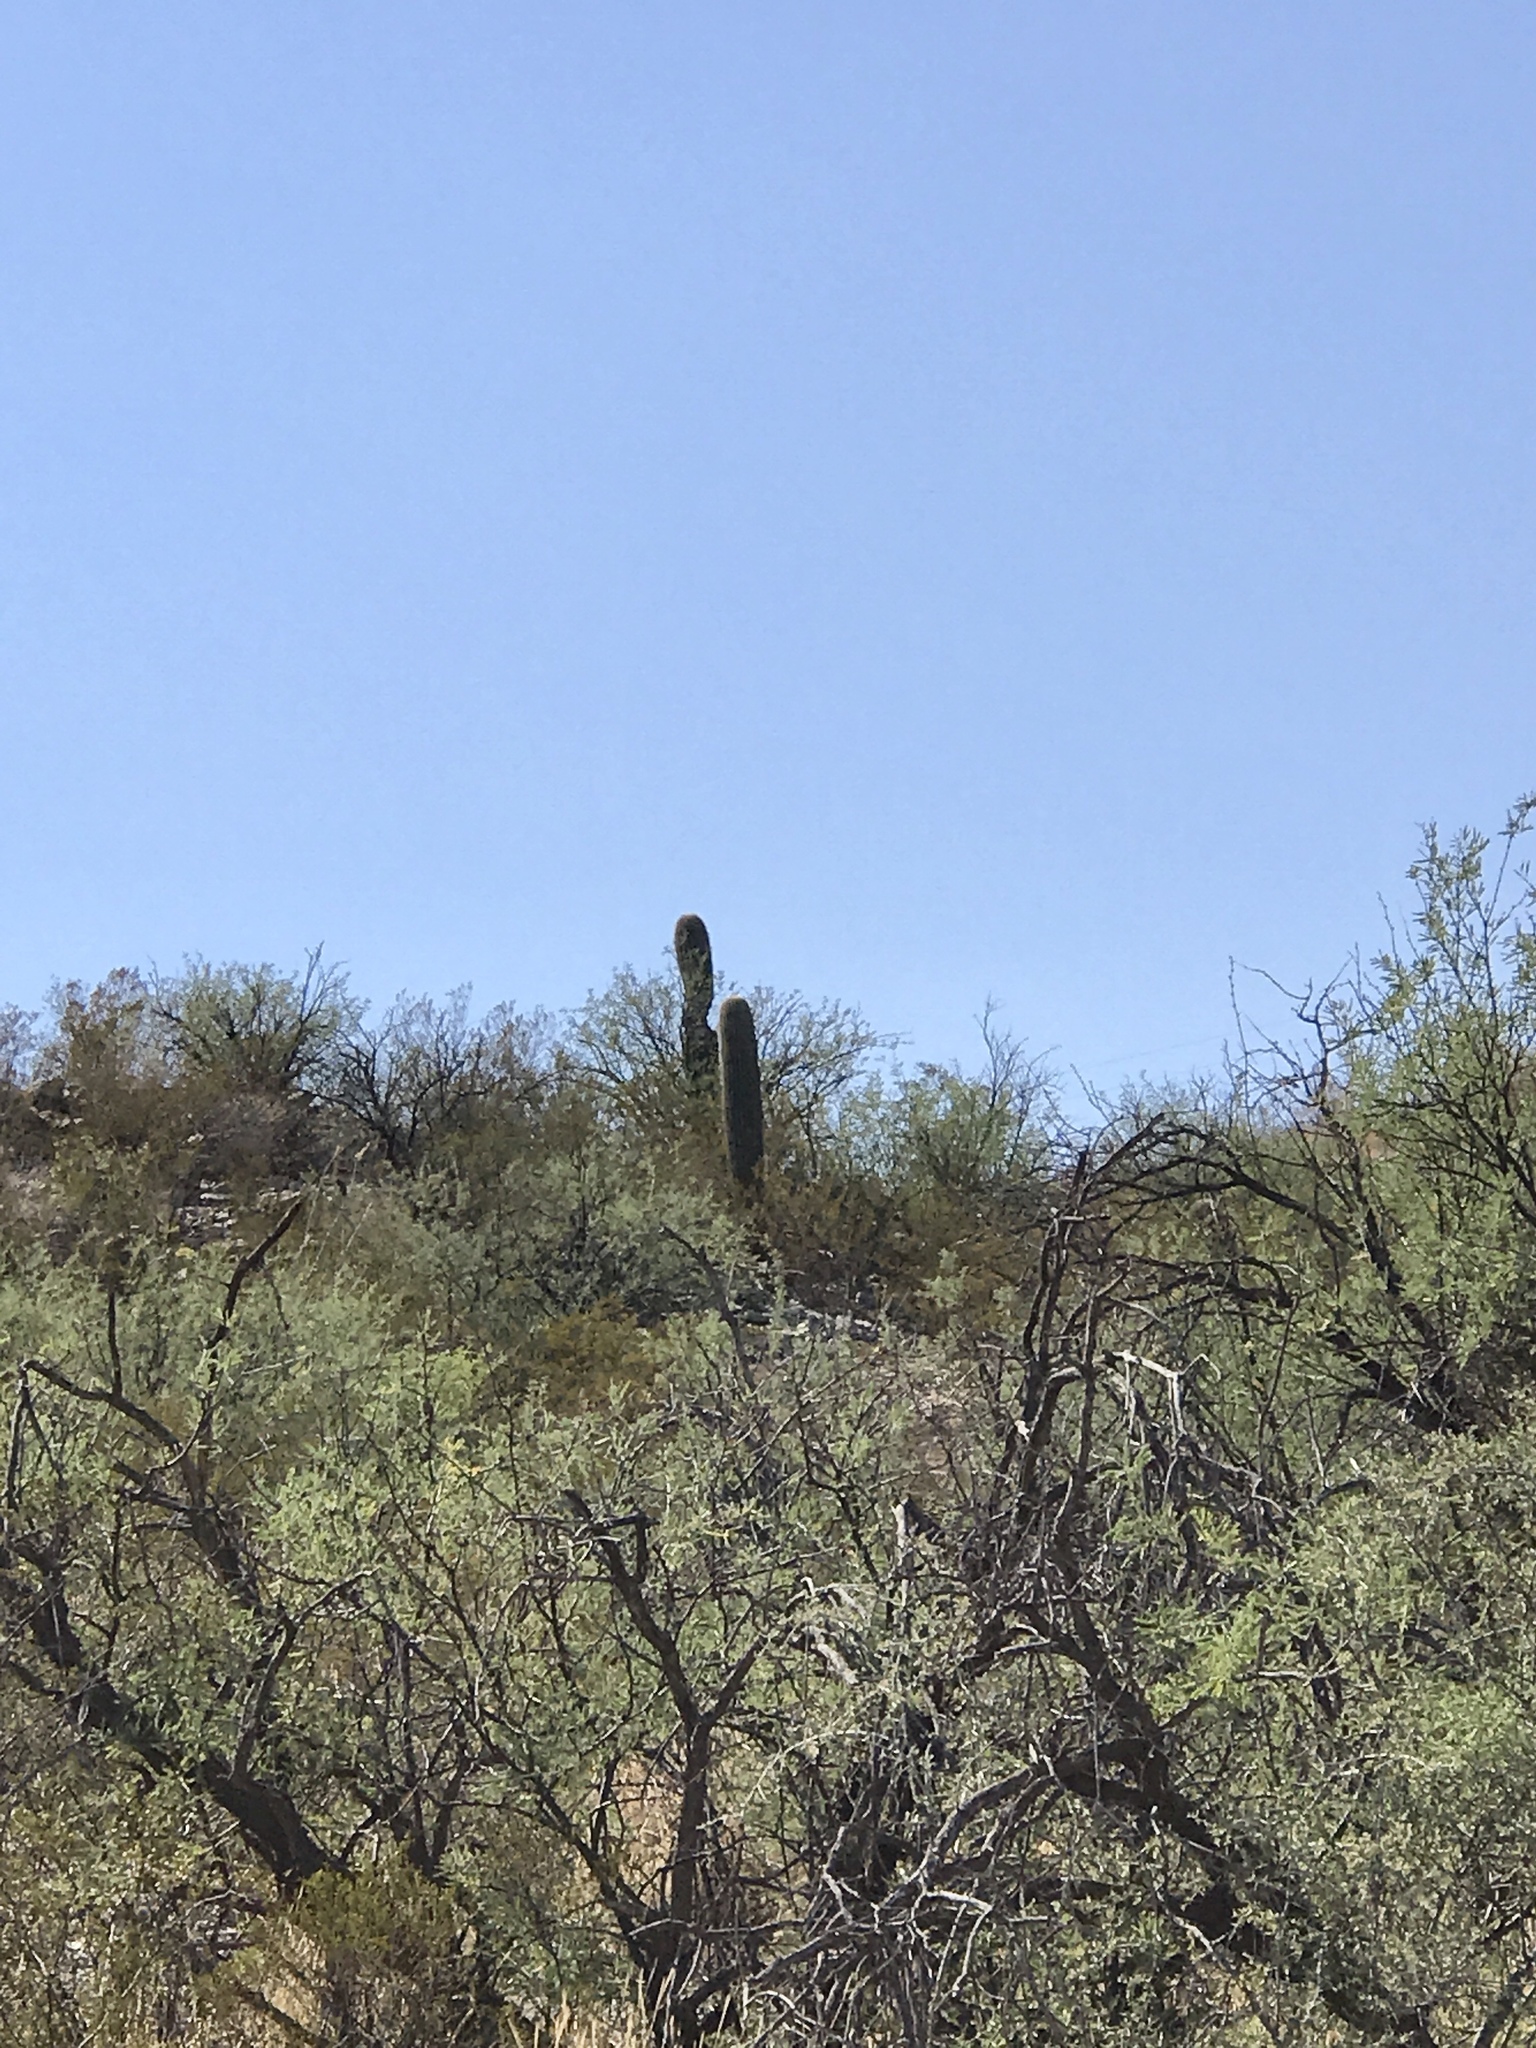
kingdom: Plantae
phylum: Tracheophyta
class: Magnoliopsida
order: Caryophyllales
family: Cactaceae
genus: Carnegiea
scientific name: Carnegiea gigantea
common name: Saguaro
